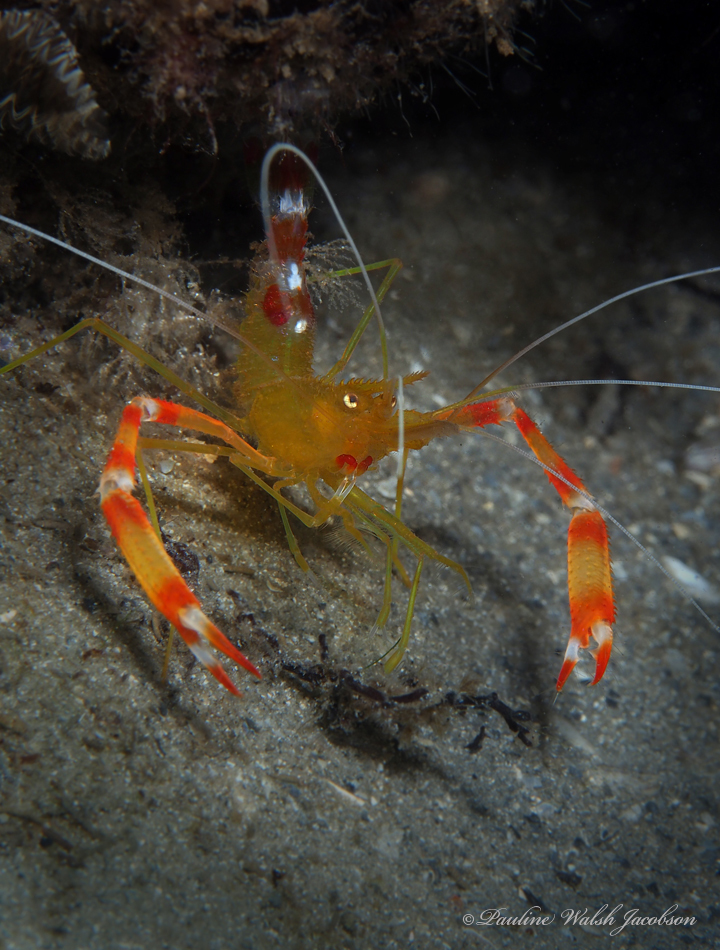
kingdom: Animalia
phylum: Arthropoda
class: Malacostraca
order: Decapoda
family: Stenopodidae
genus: Stenopus
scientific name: Stenopus scutellatus
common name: Golden coral shrimp
